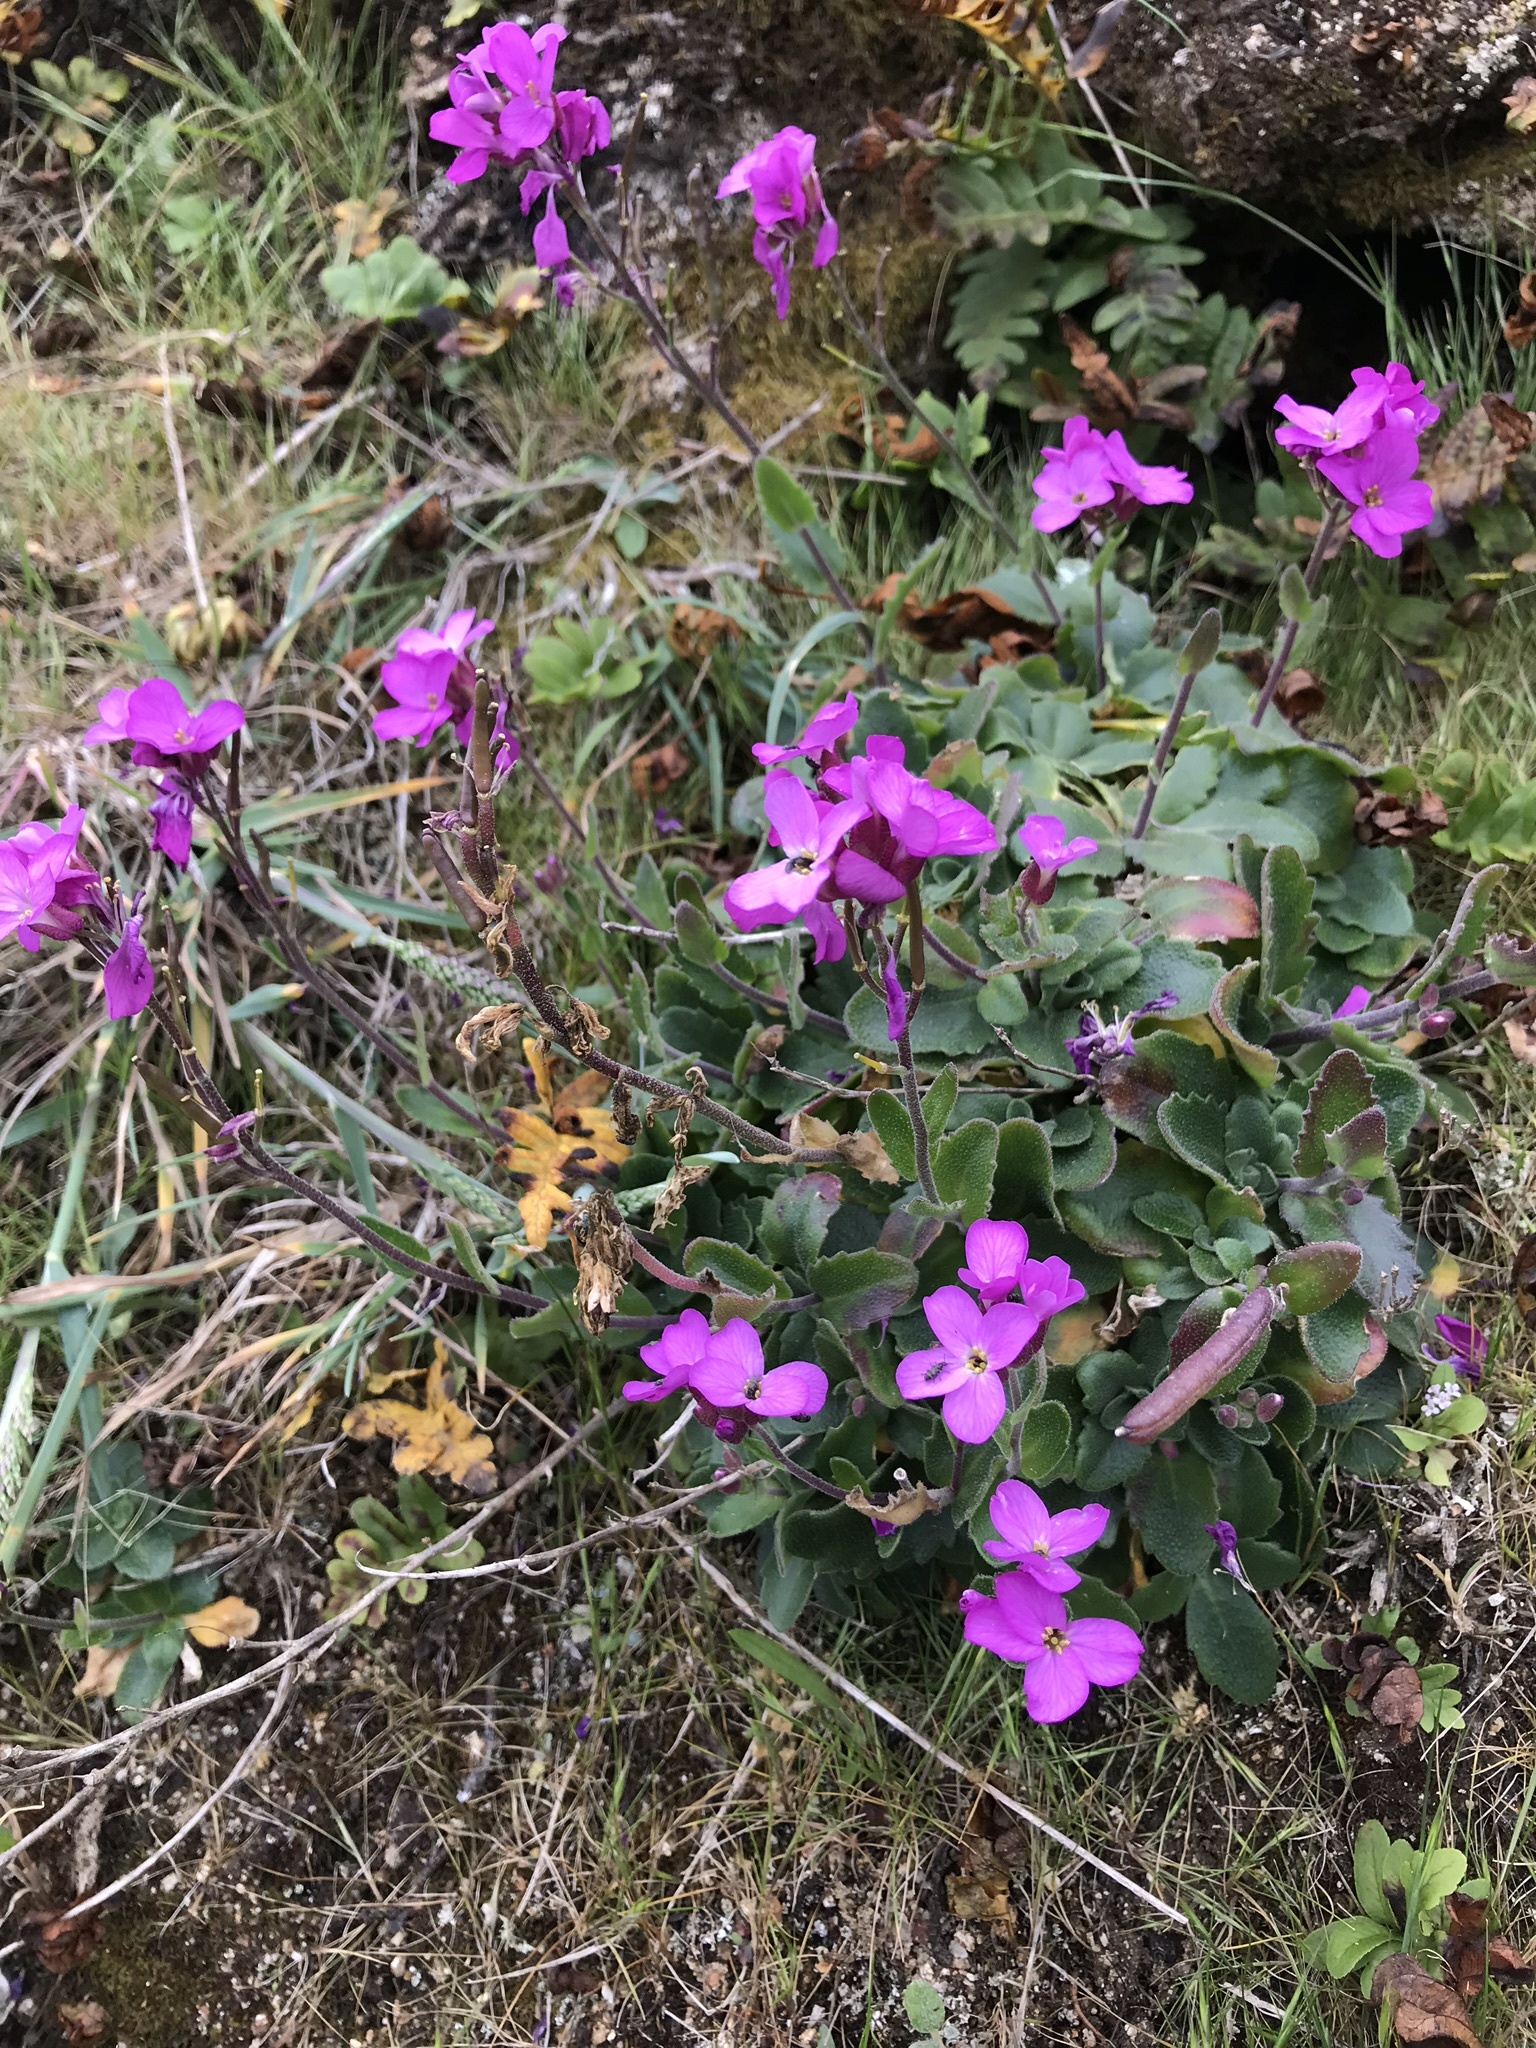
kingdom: Plantae
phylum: Tracheophyta
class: Magnoliopsida
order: Brassicales
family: Brassicaceae
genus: Arabis
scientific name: Arabis blepharophylla
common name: Rose rockcress
